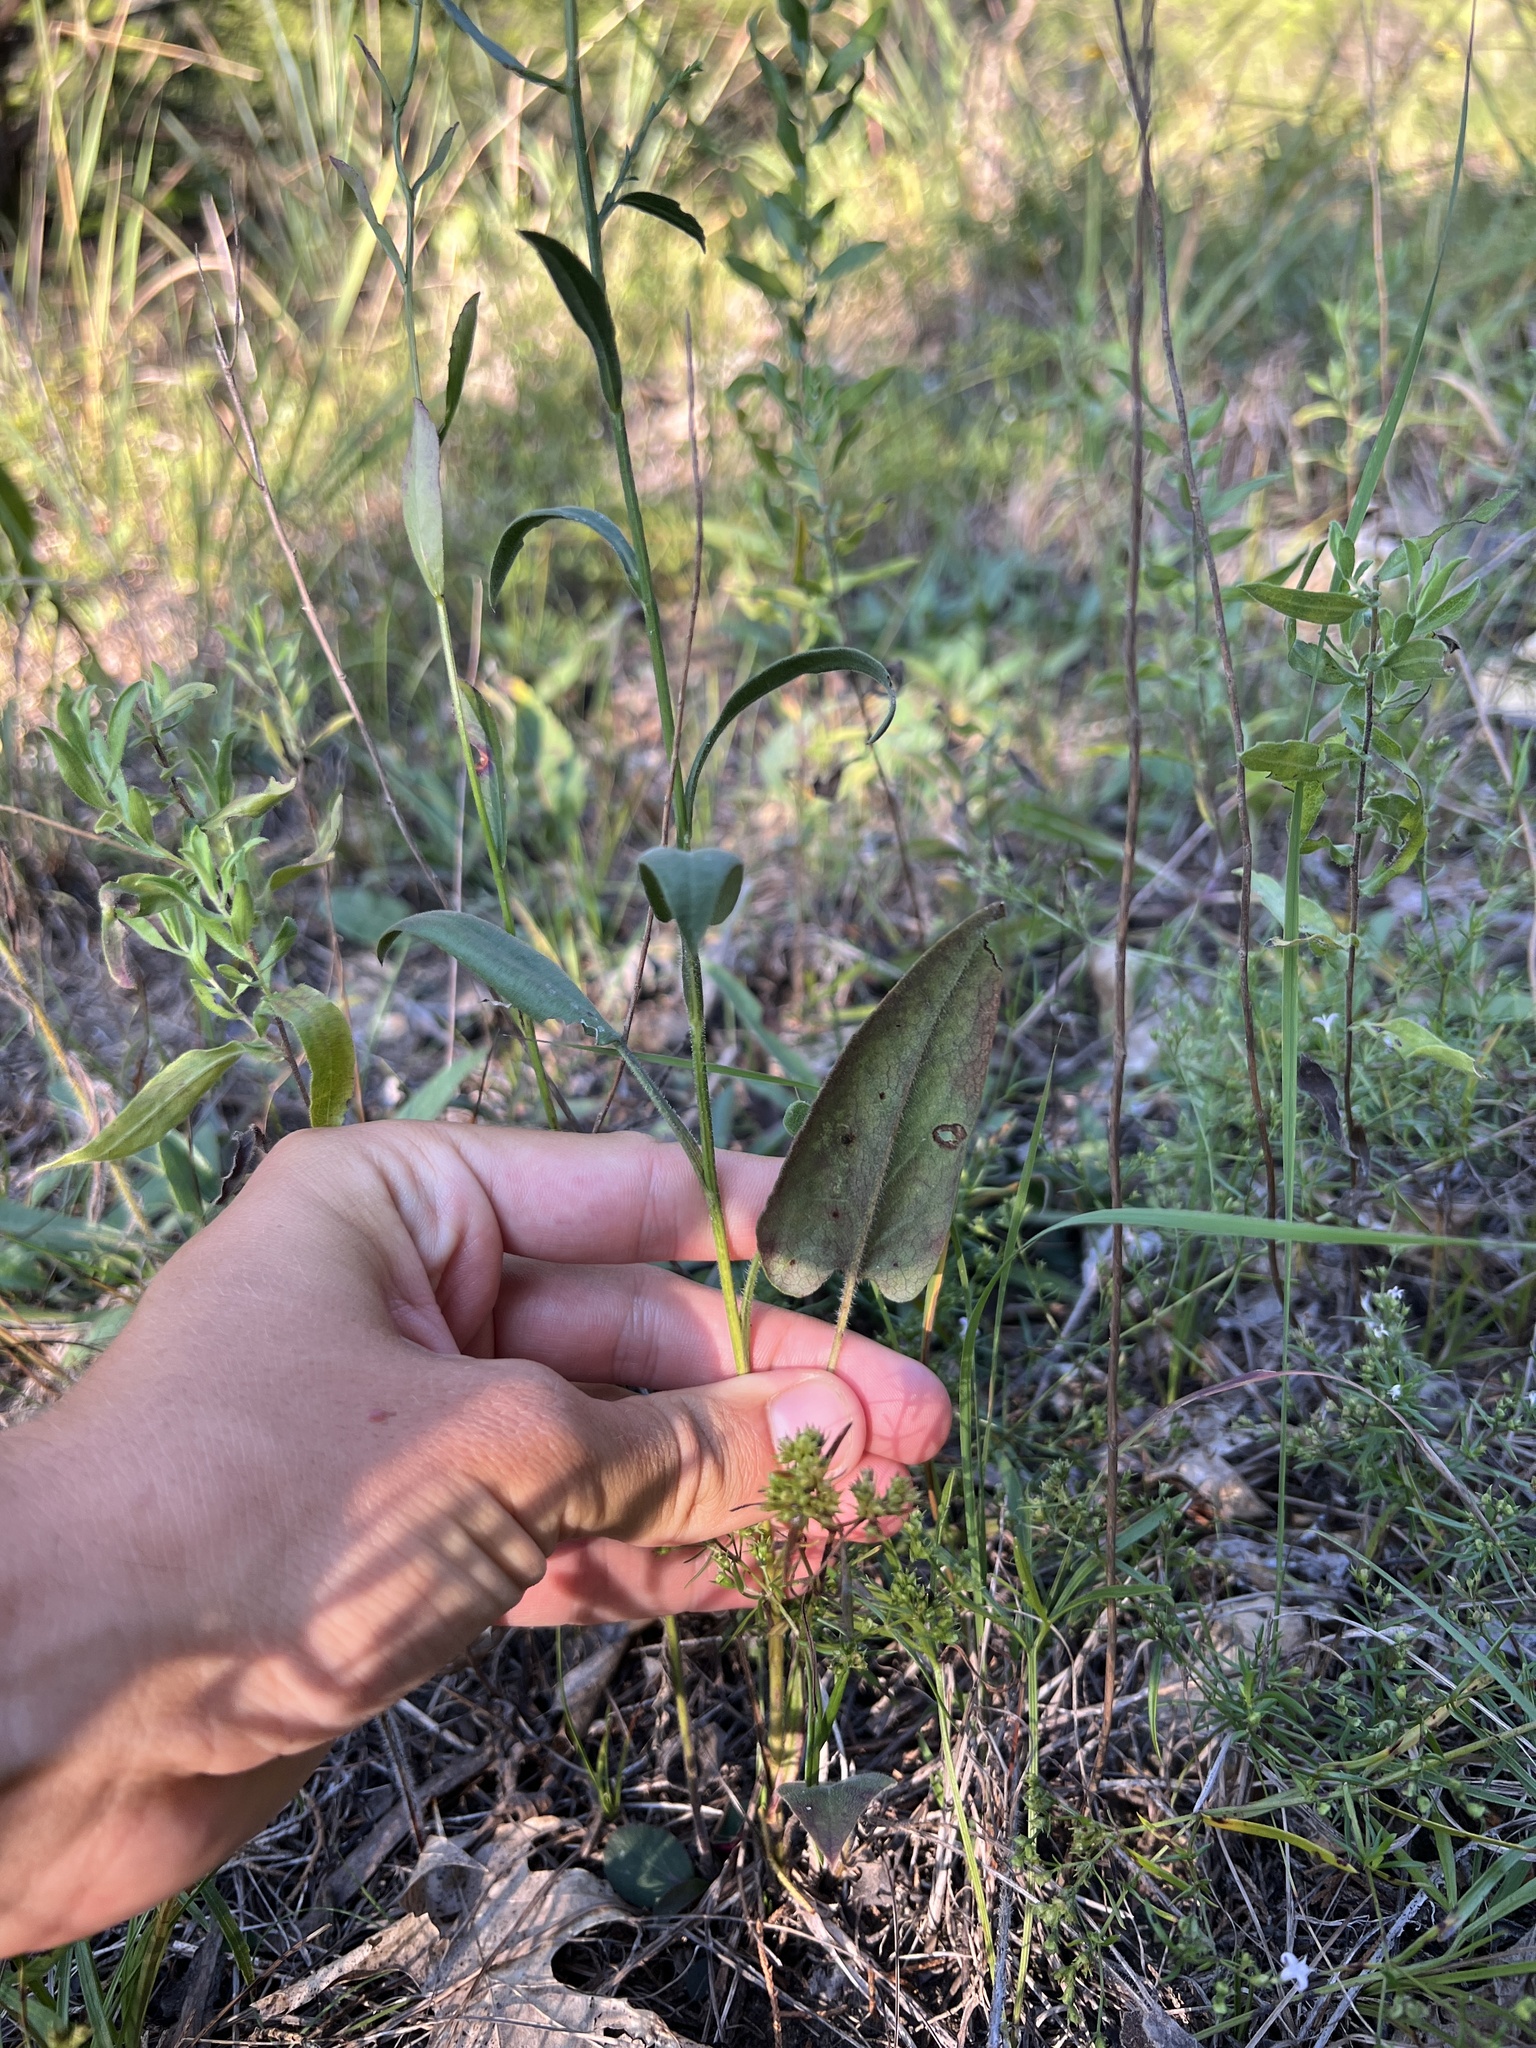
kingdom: Plantae
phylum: Tracheophyta
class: Magnoliopsida
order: Asterales
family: Asteraceae
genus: Symphyotrichum
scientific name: Symphyotrichum oolentangiense
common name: Azure aster
